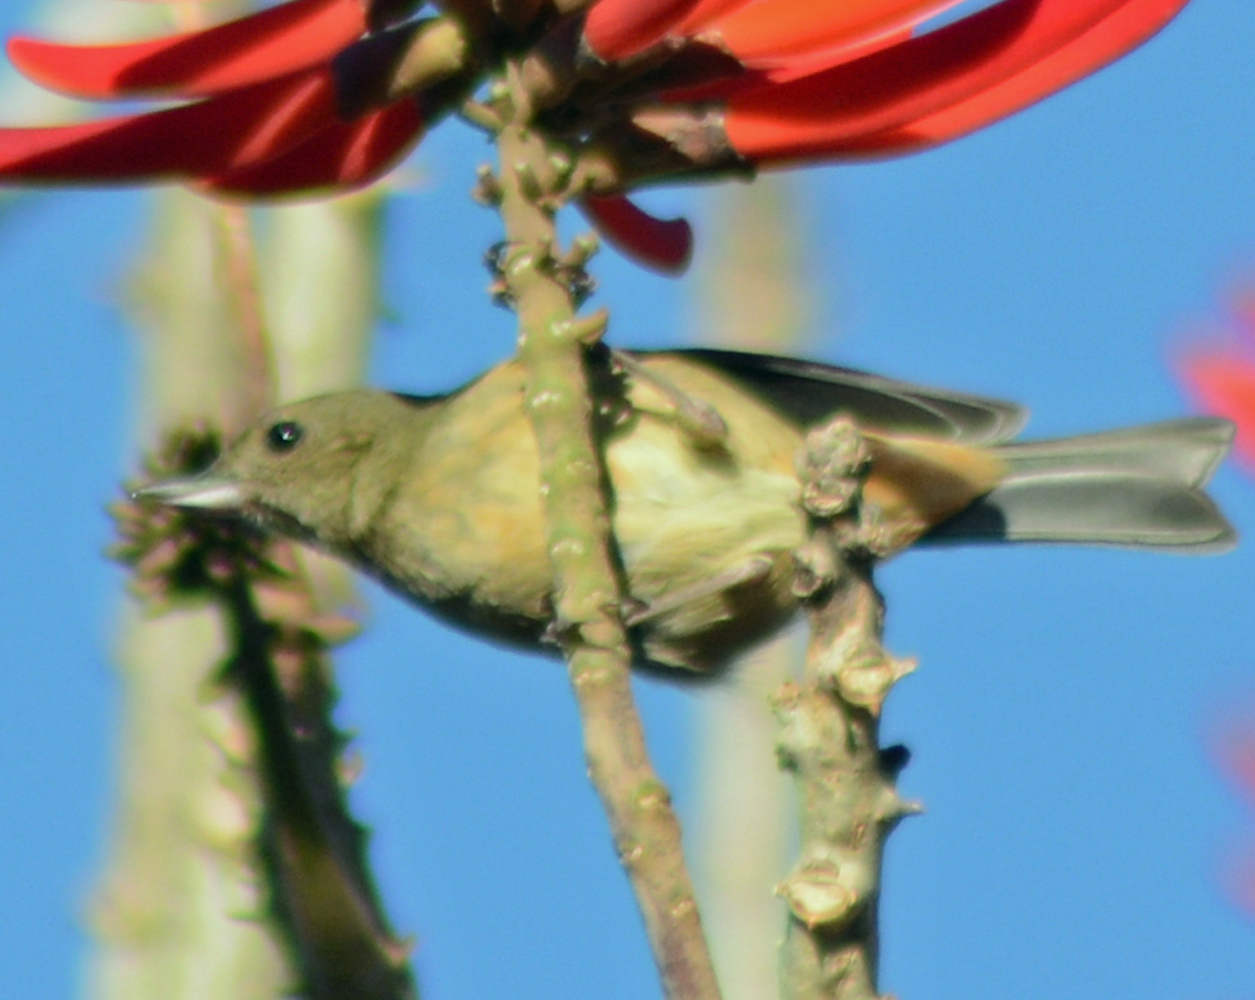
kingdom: Animalia
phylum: Chordata
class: Aves
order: Passeriformes
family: Thraupidae
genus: Diglossa
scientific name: Diglossa baritula
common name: Cinnamon-bellied flowerpiercer
